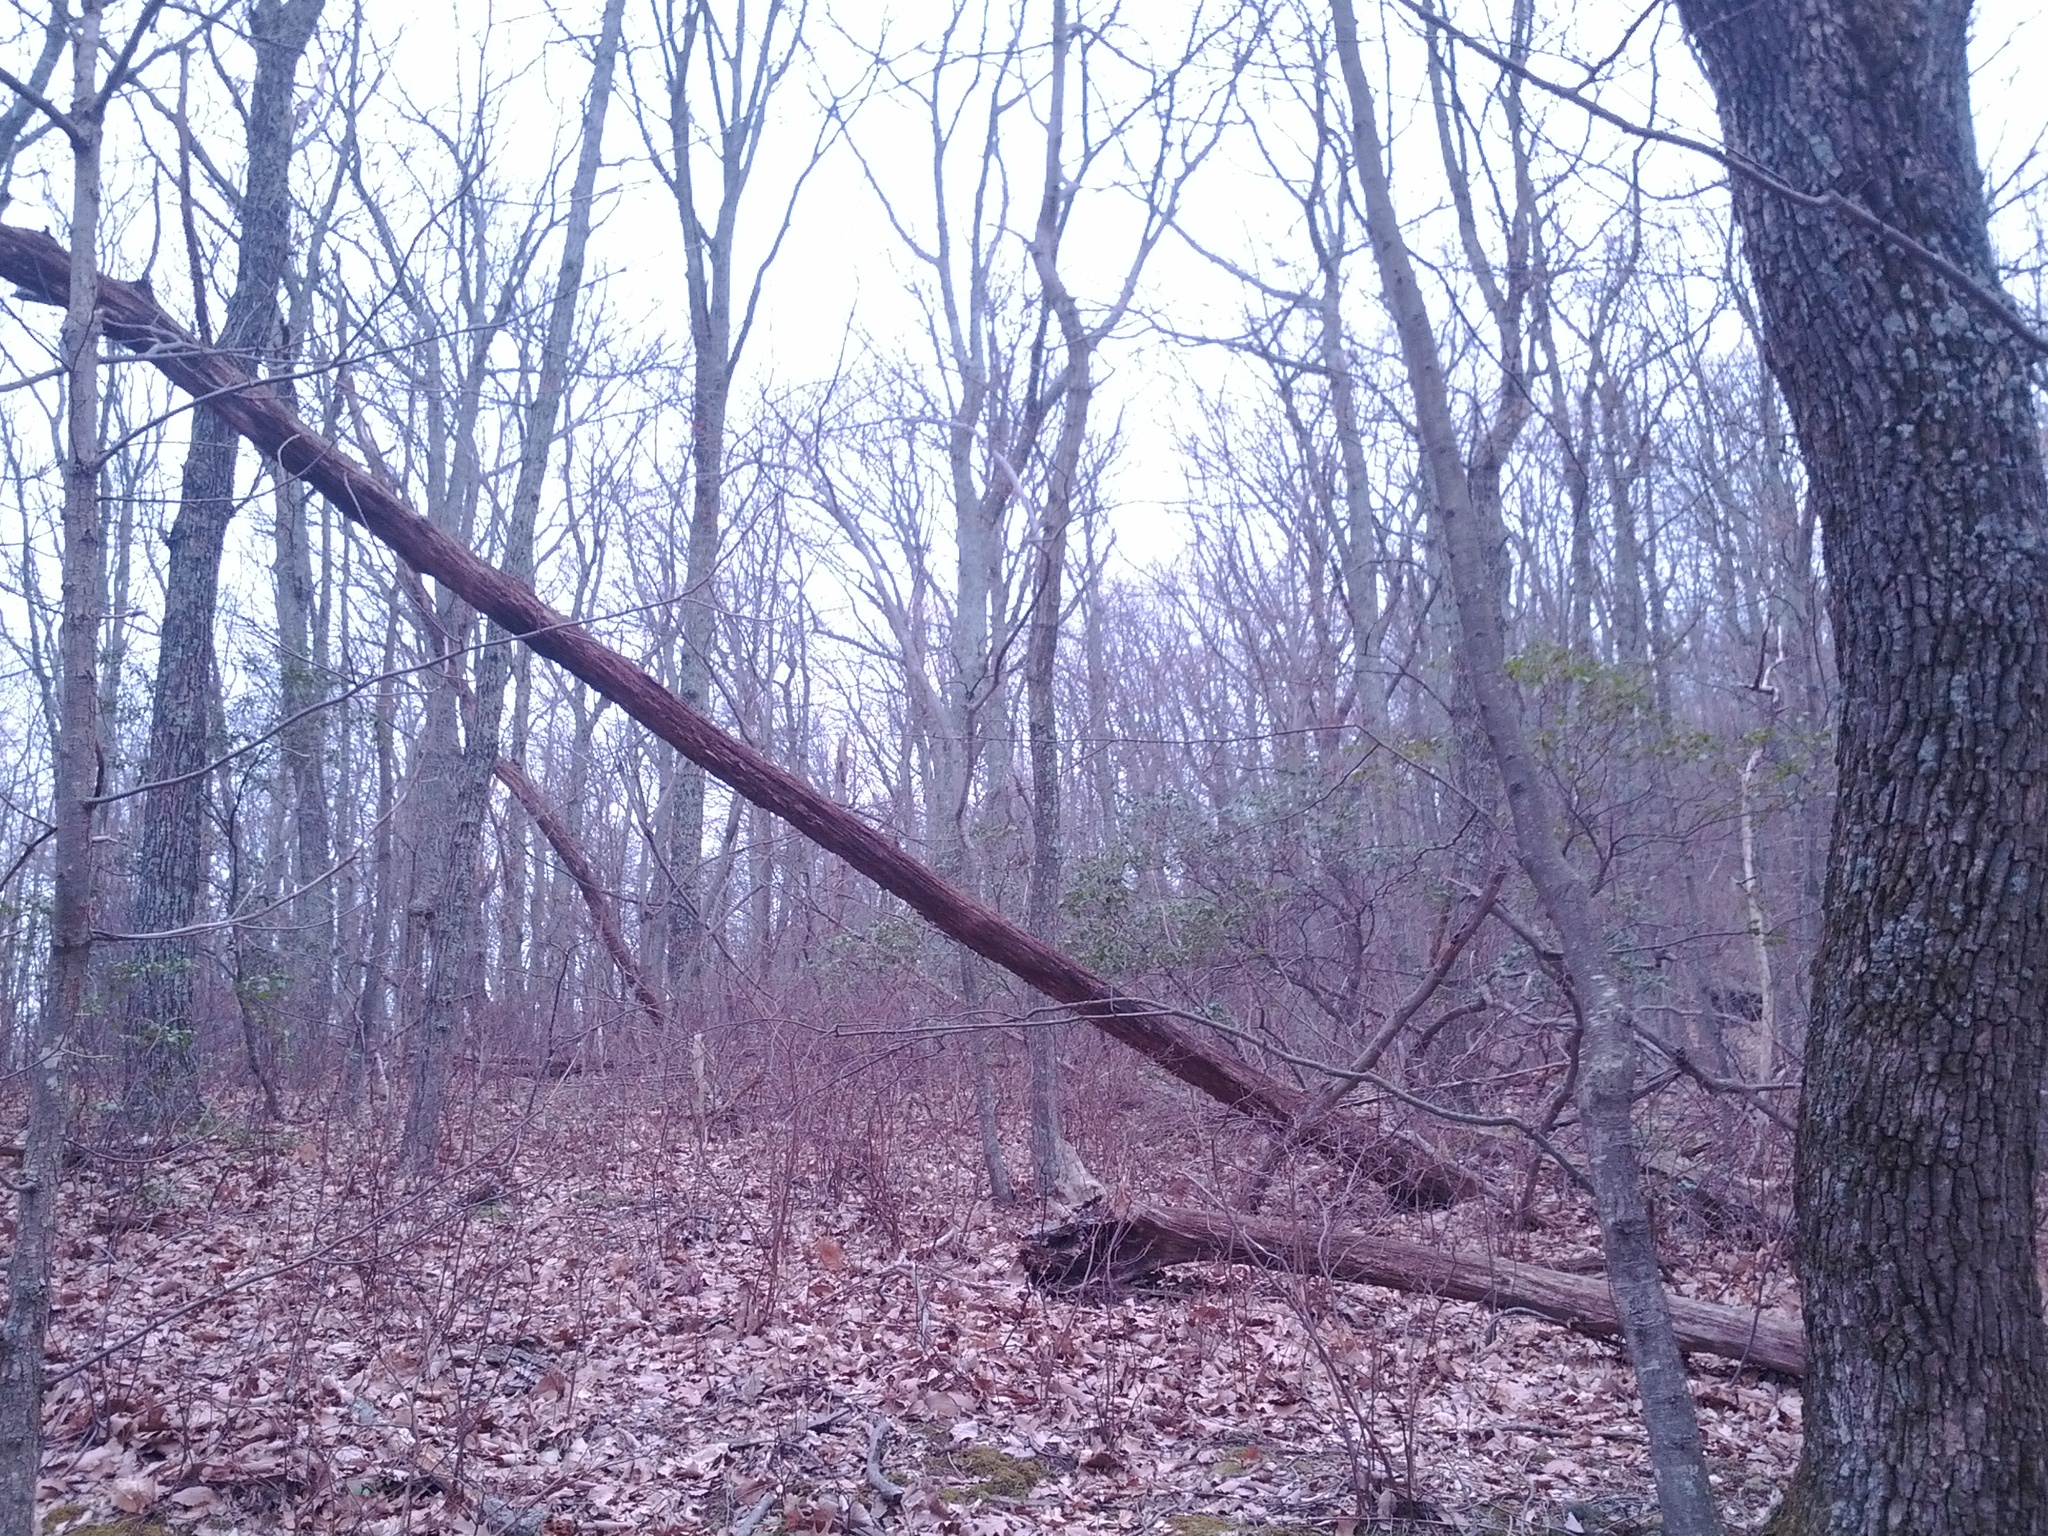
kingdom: Animalia
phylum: Chordata
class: Aves
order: Passeriformes
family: Tyrannidae
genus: Sayornis
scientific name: Sayornis phoebe
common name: Eastern phoebe
